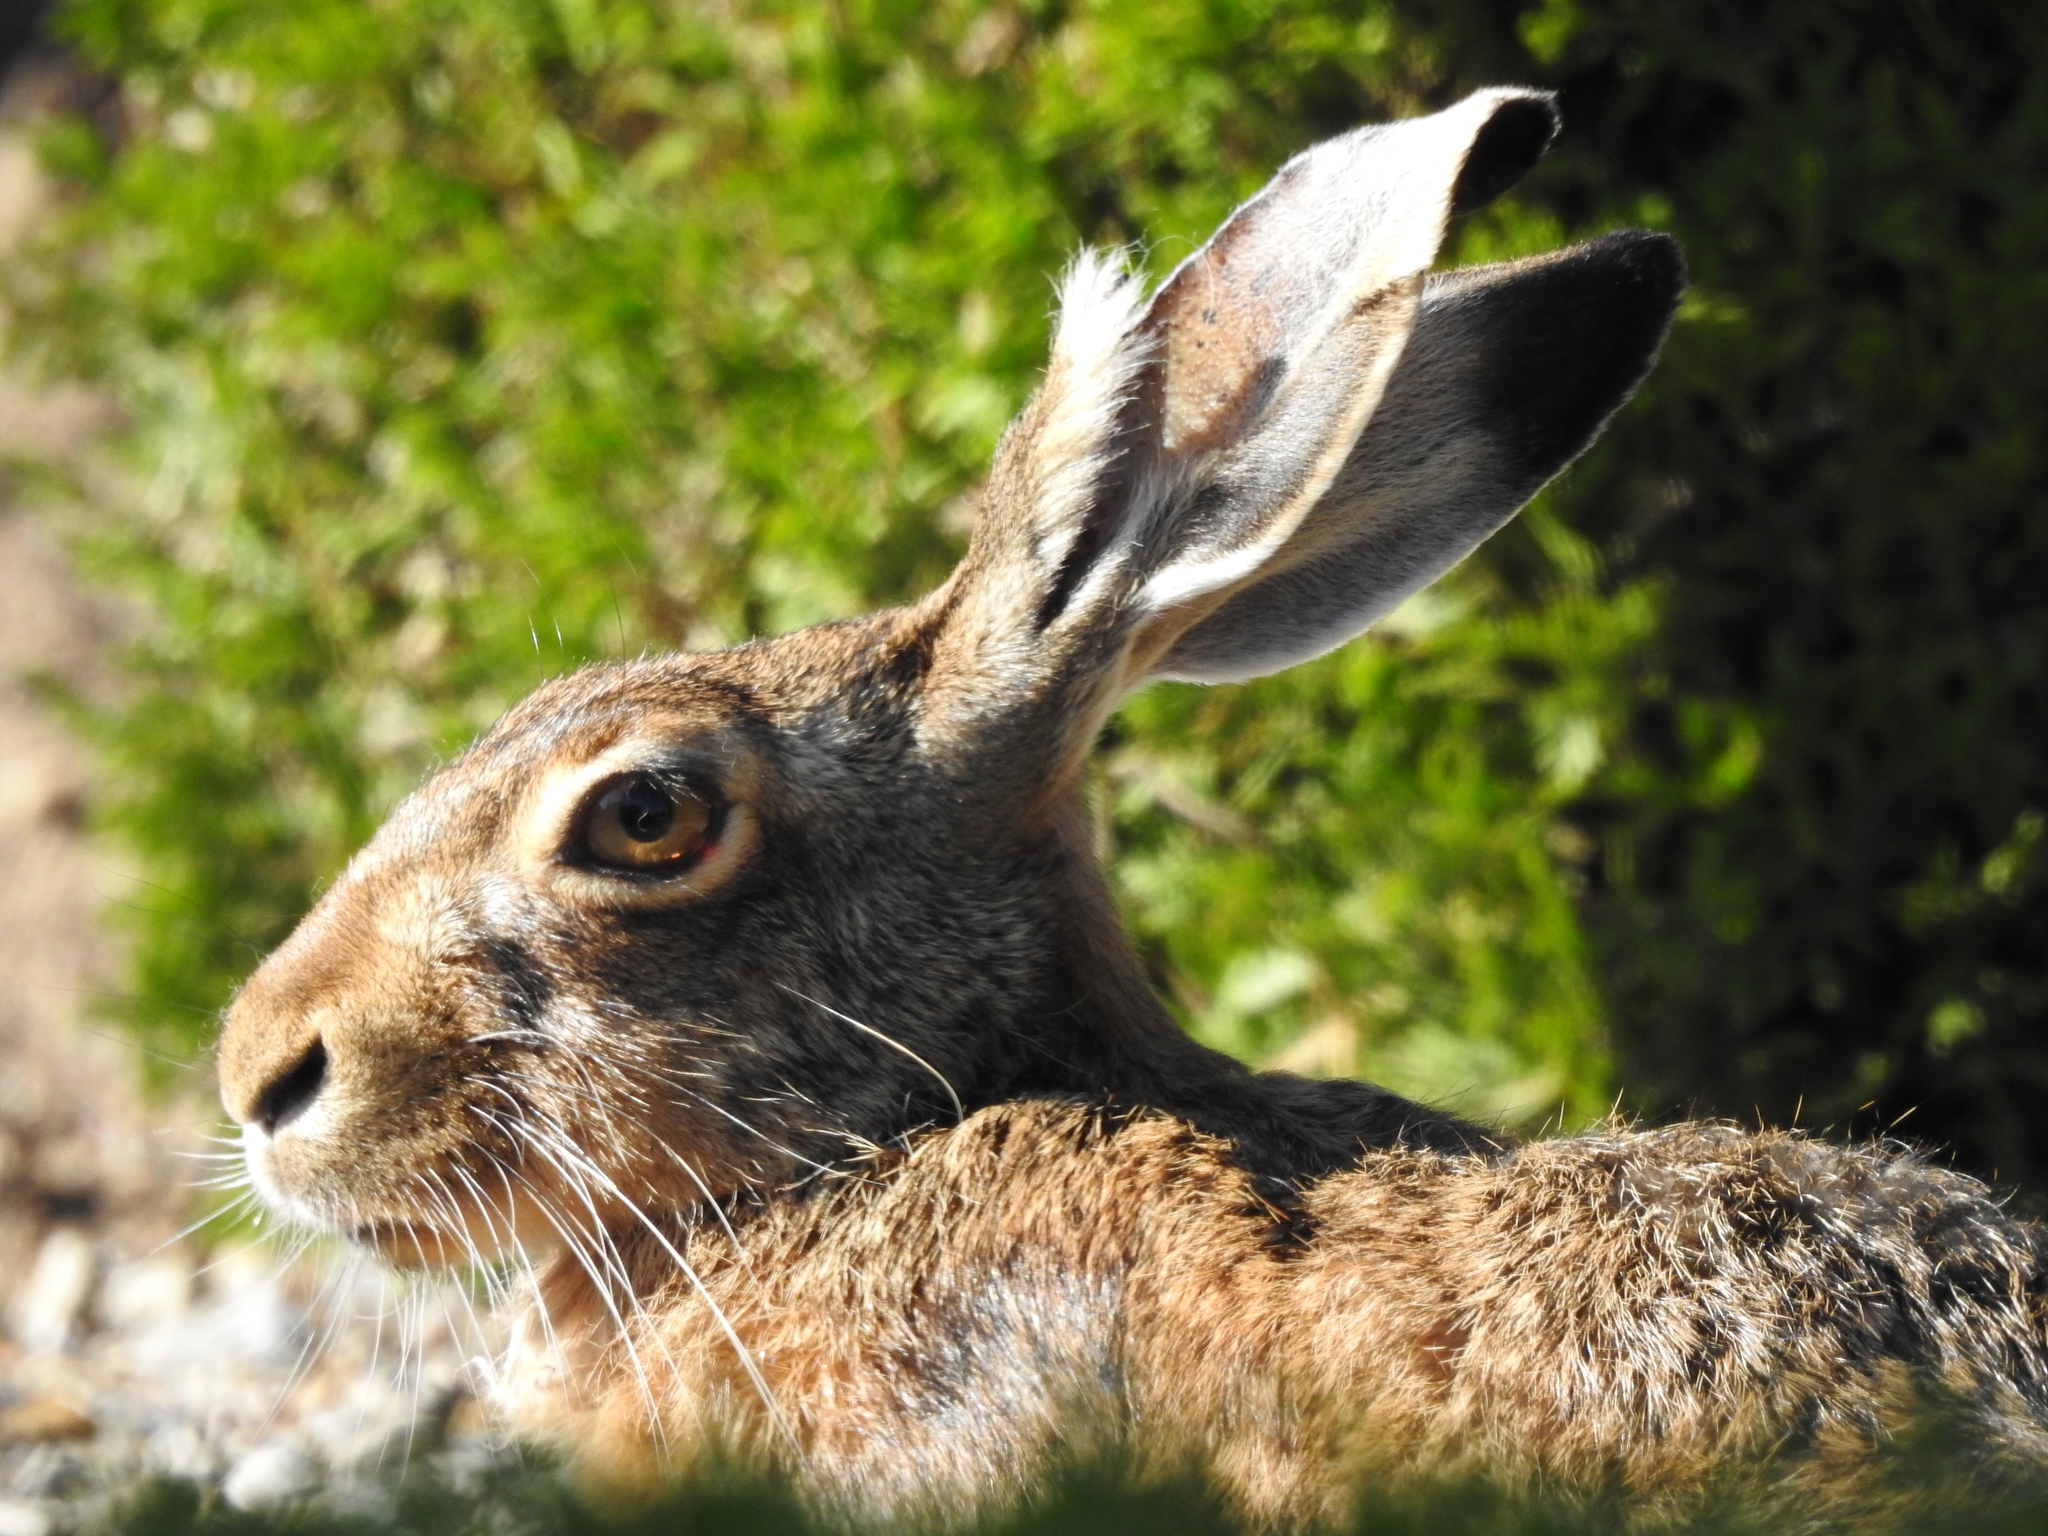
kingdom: Animalia
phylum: Chordata
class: Mammalia
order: Lagomorpha
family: Leporidae
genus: Lepus
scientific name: Lepus europaeus
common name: European hare
